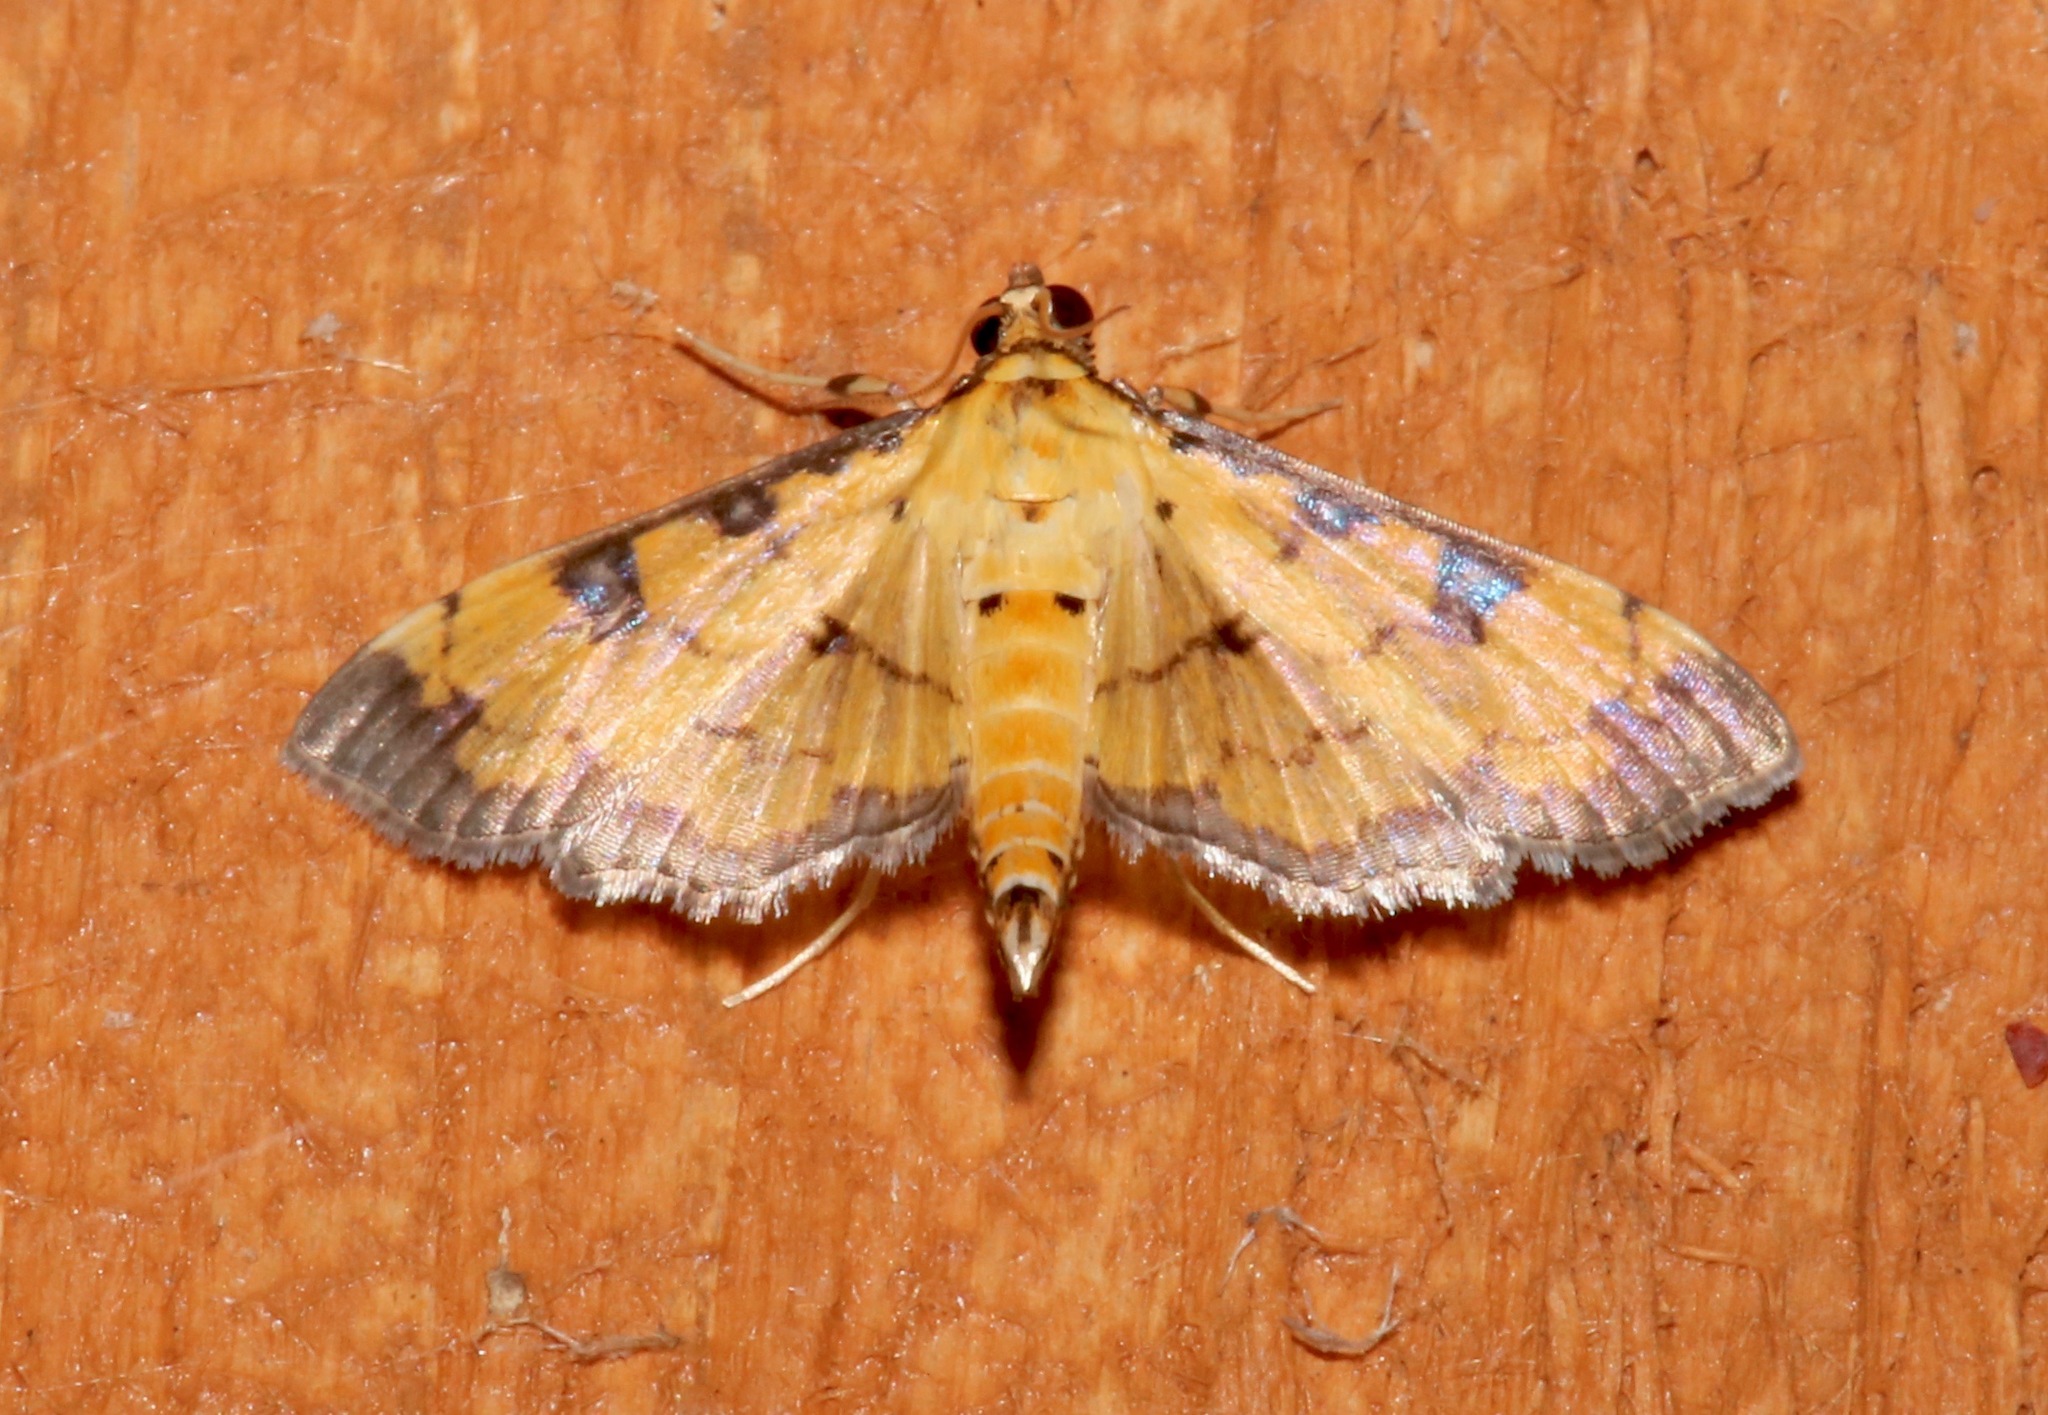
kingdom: Animalia
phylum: Arthropoda
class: Insecta
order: Lepidoptera
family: Crambidae
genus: Ategumia
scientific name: Ategumia ebulealis
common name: Moth
